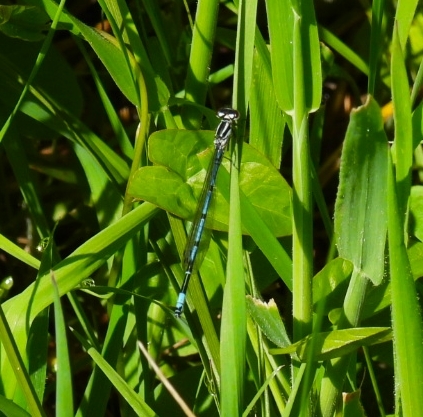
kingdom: Animalia
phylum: Arthropoda
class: Insecta
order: Odonata
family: Coenagrionidae
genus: Coenagrion
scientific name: Coenagrion puella
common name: Azure damselfly
